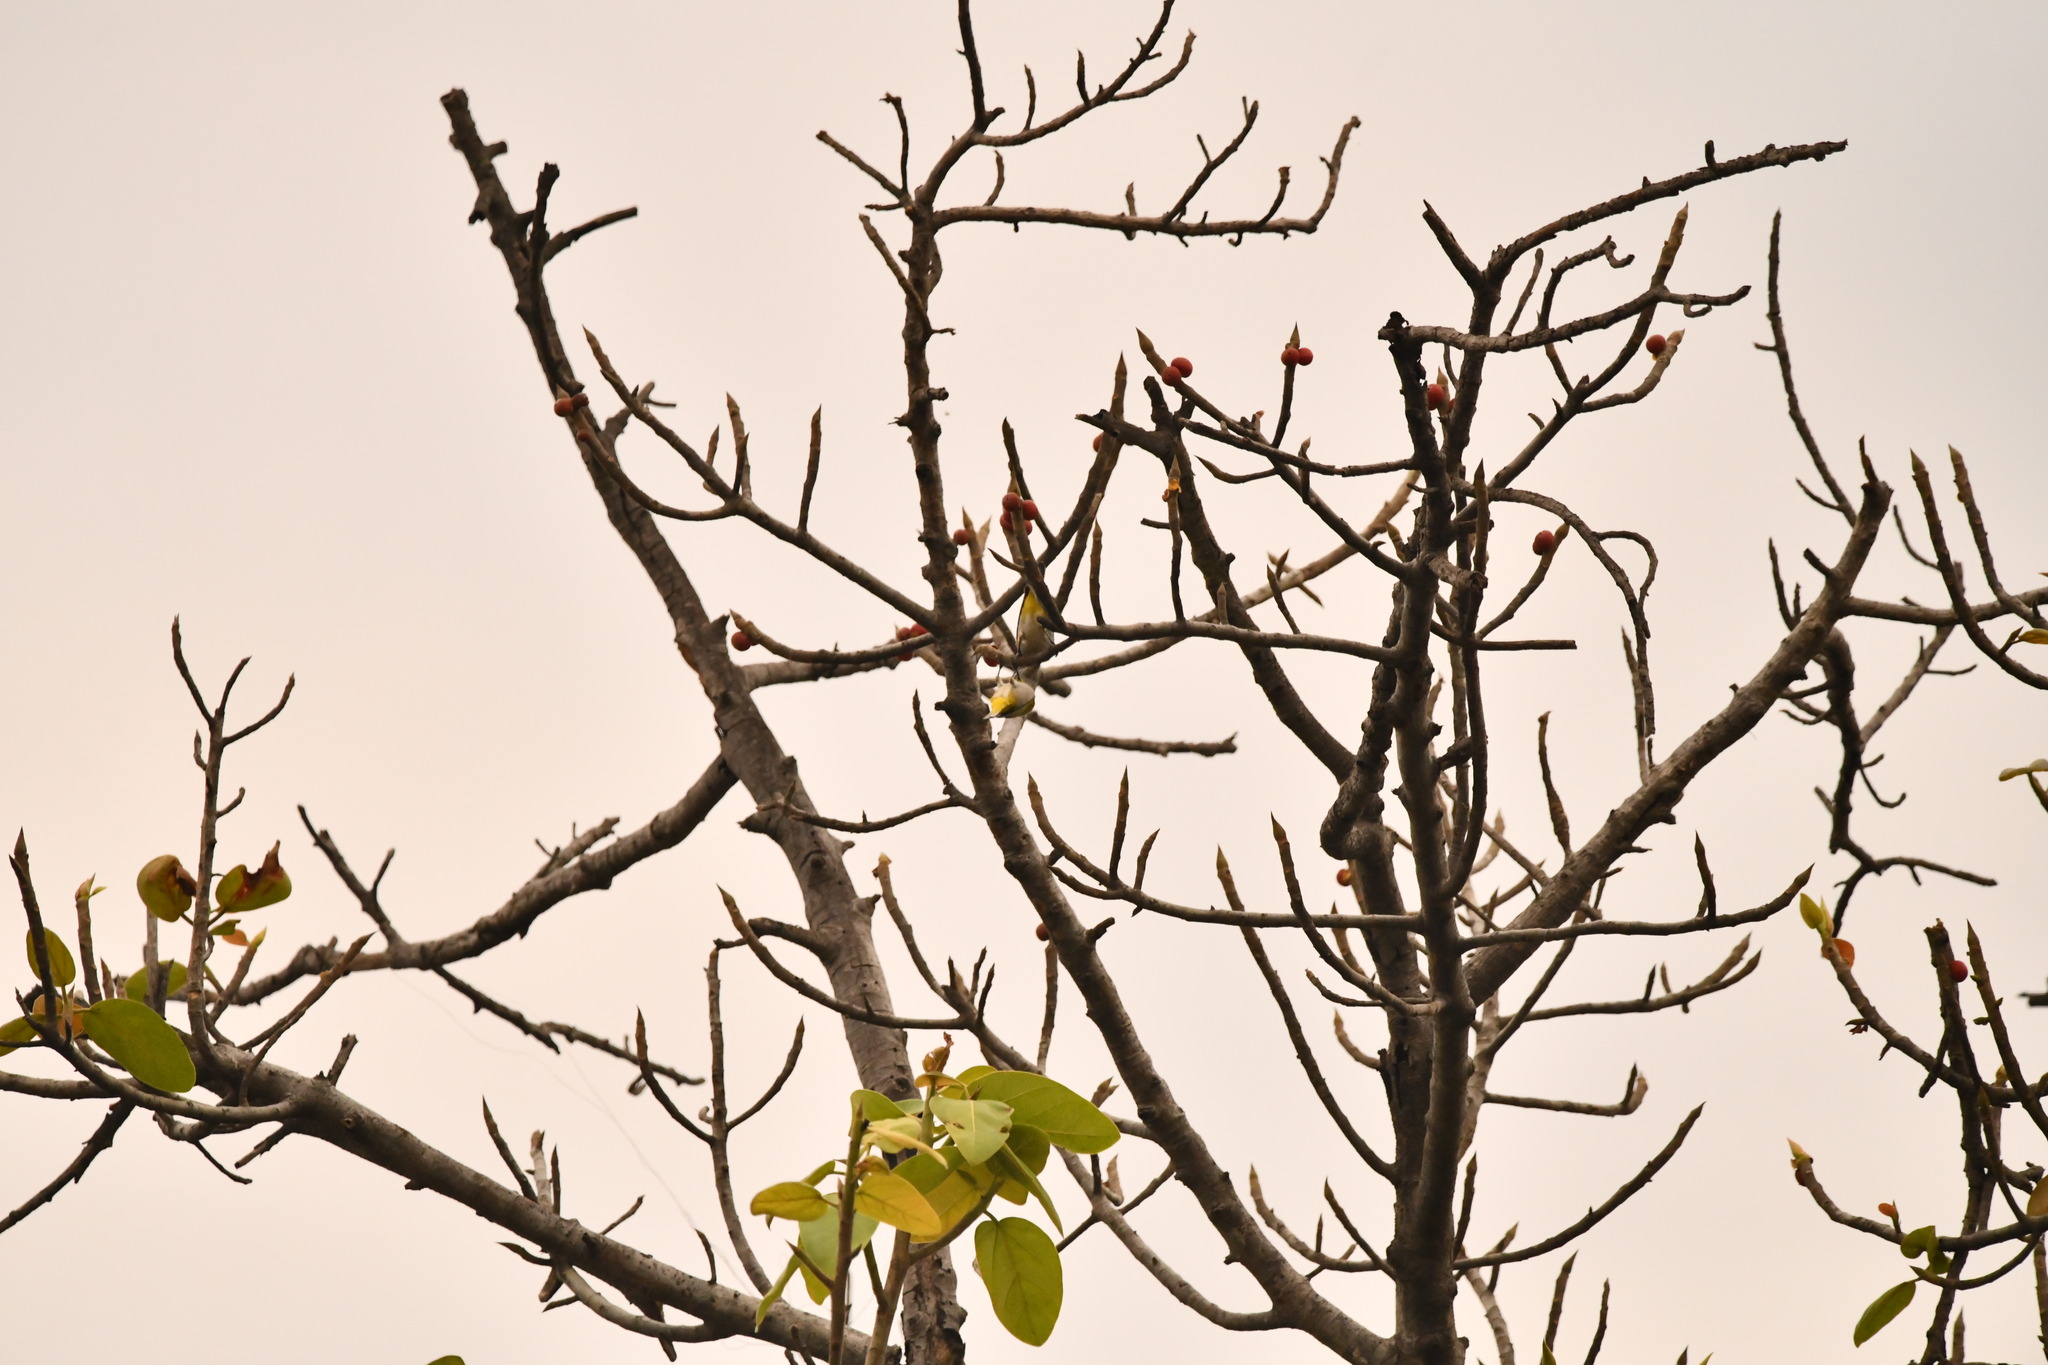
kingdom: Animalia
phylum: Chordata
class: Aves
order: Passeriformes
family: Zosteropidae
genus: Zosterops
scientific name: Zosterops palpebrosus
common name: Oriental white-eye
